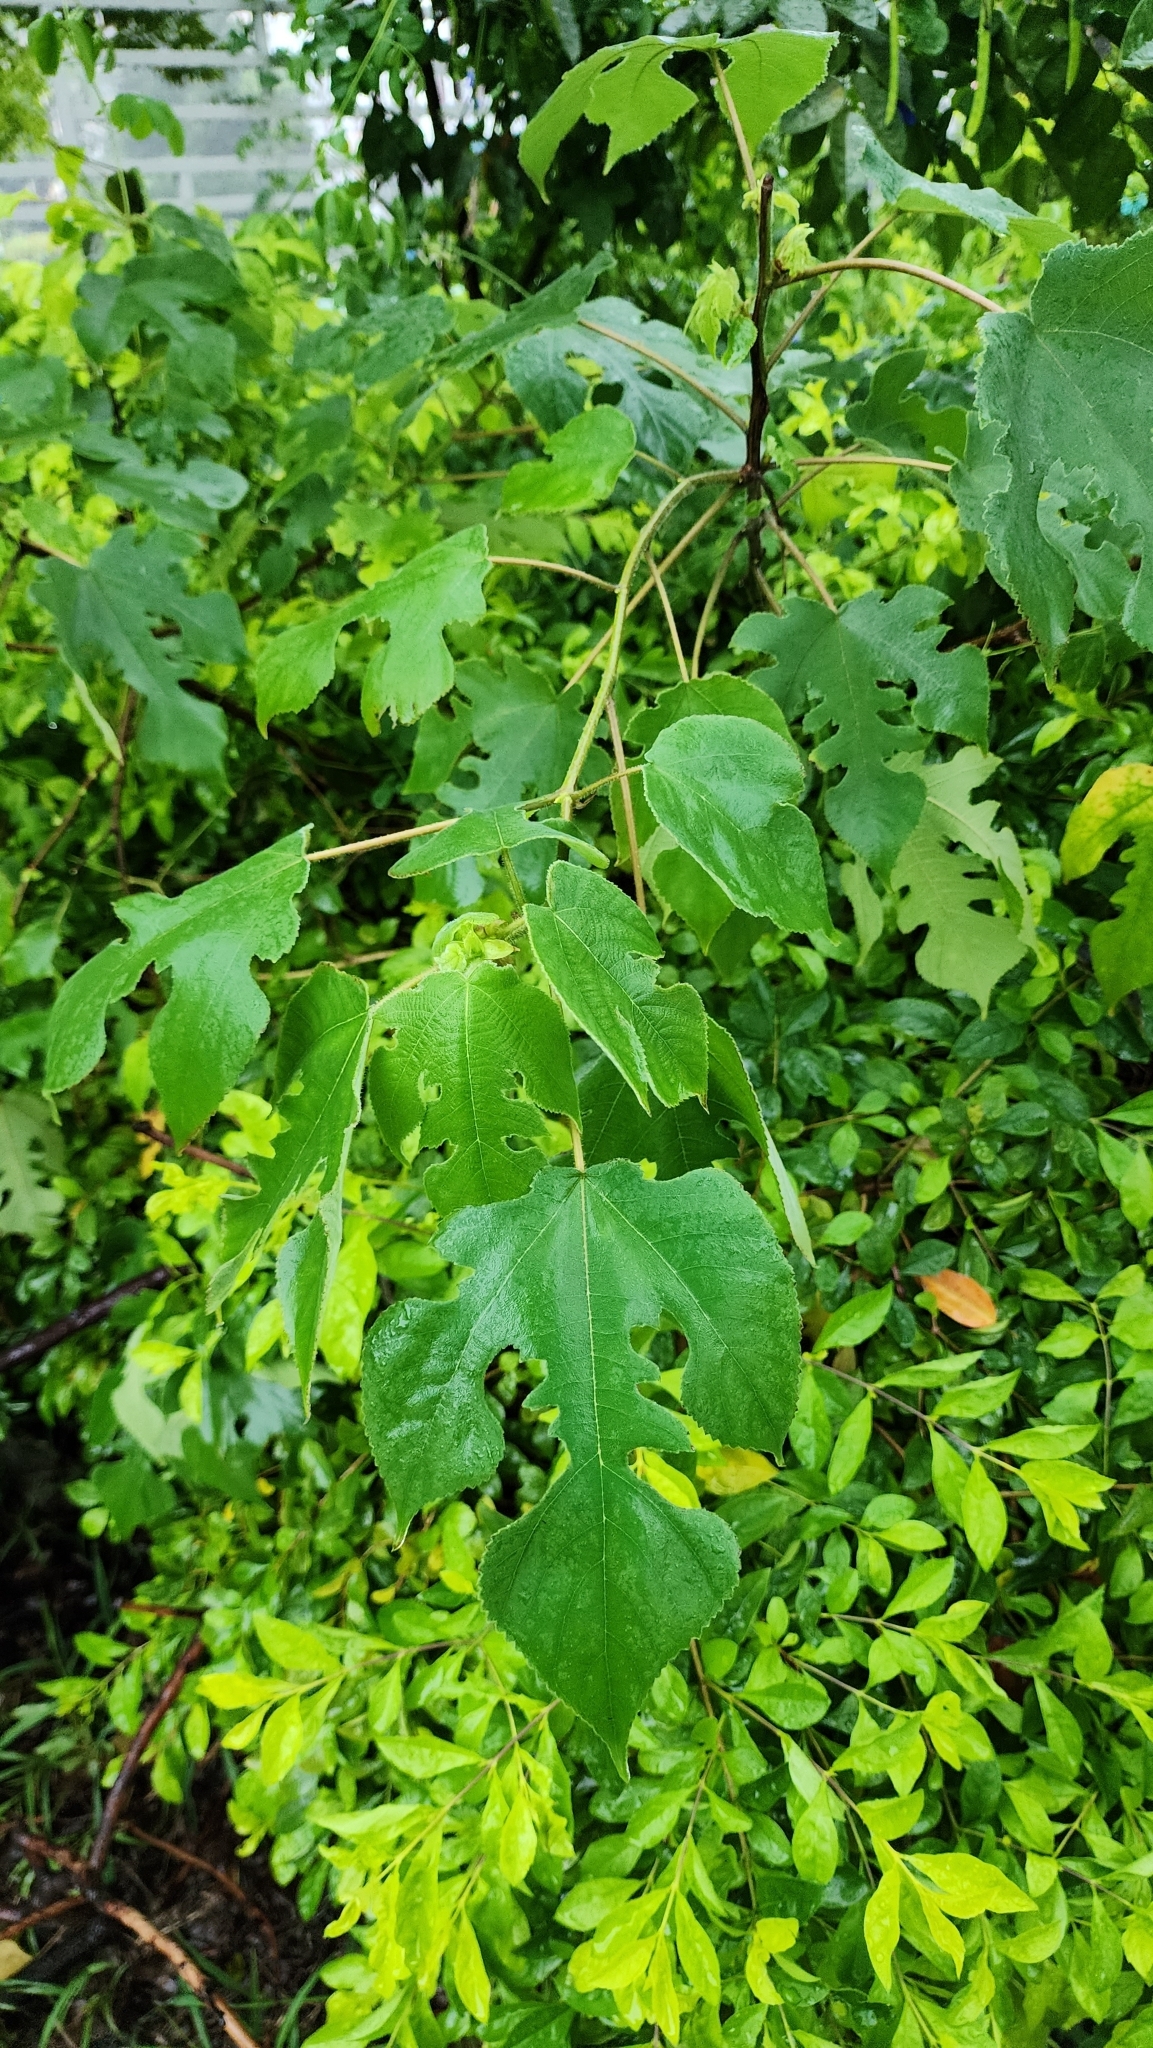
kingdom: Plantae
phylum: Tracheophyta
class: Magnoliopsida
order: Rosales
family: Moraceae
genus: Broussonetia
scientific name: Broussonetia papyrifera
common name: Paper mulberry
